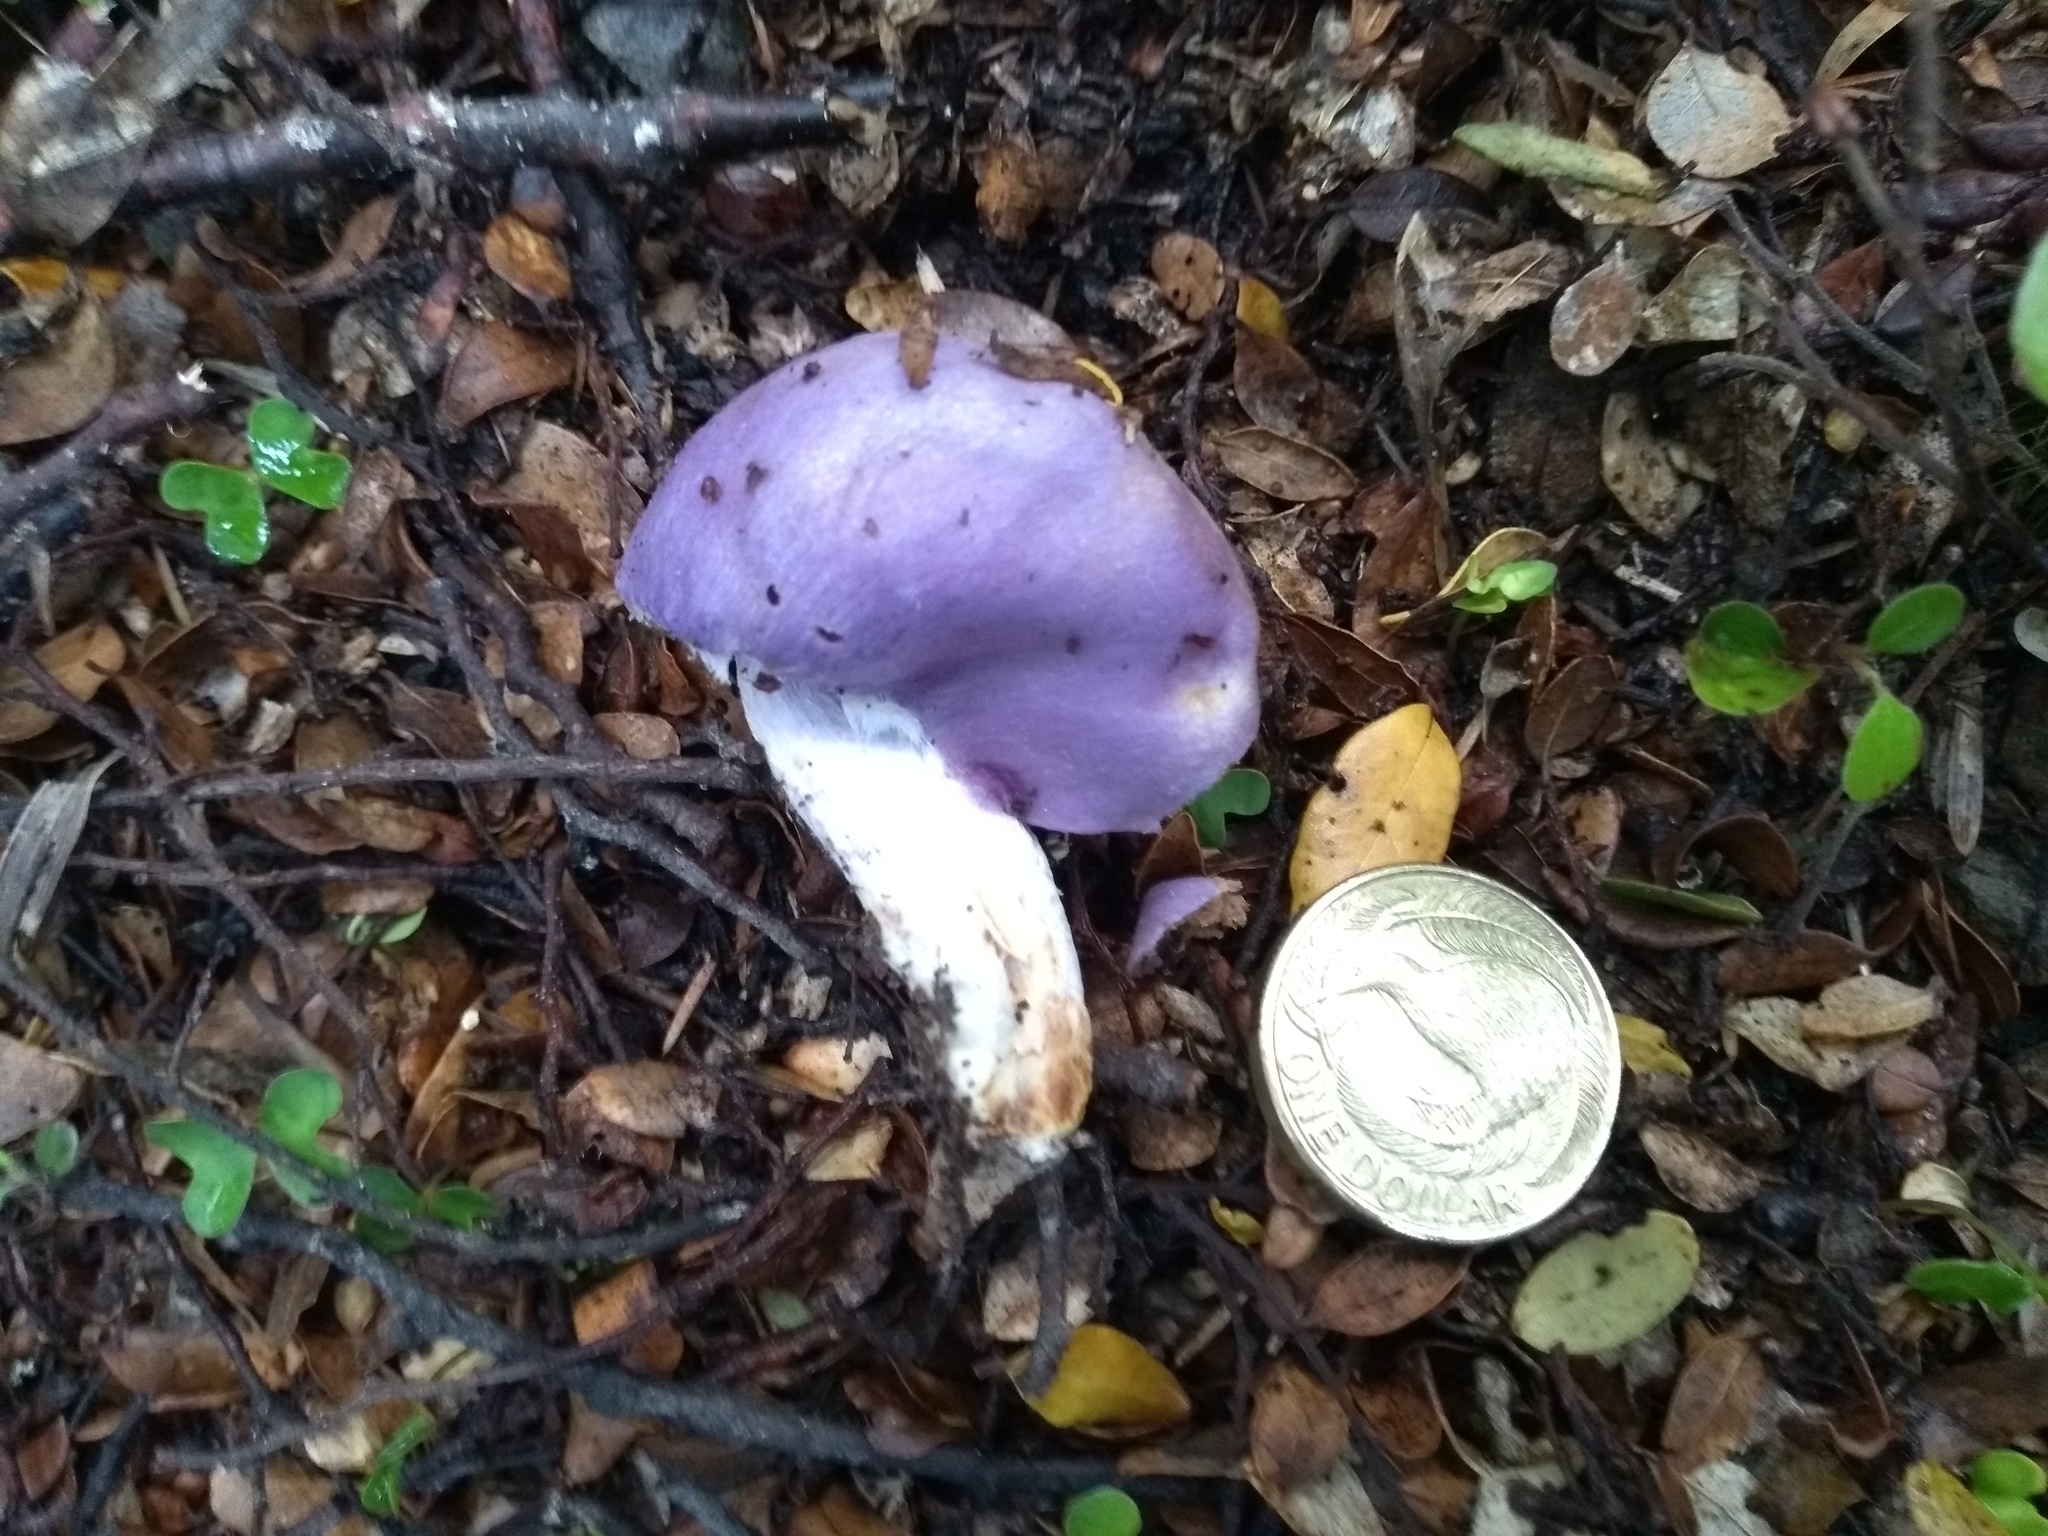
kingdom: Fungi
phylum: Basidiomycota
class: Agaricomycetes
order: Agaricales
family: Cortinariaceae
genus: Cortinarius
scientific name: Cortinarius porphyroideus
